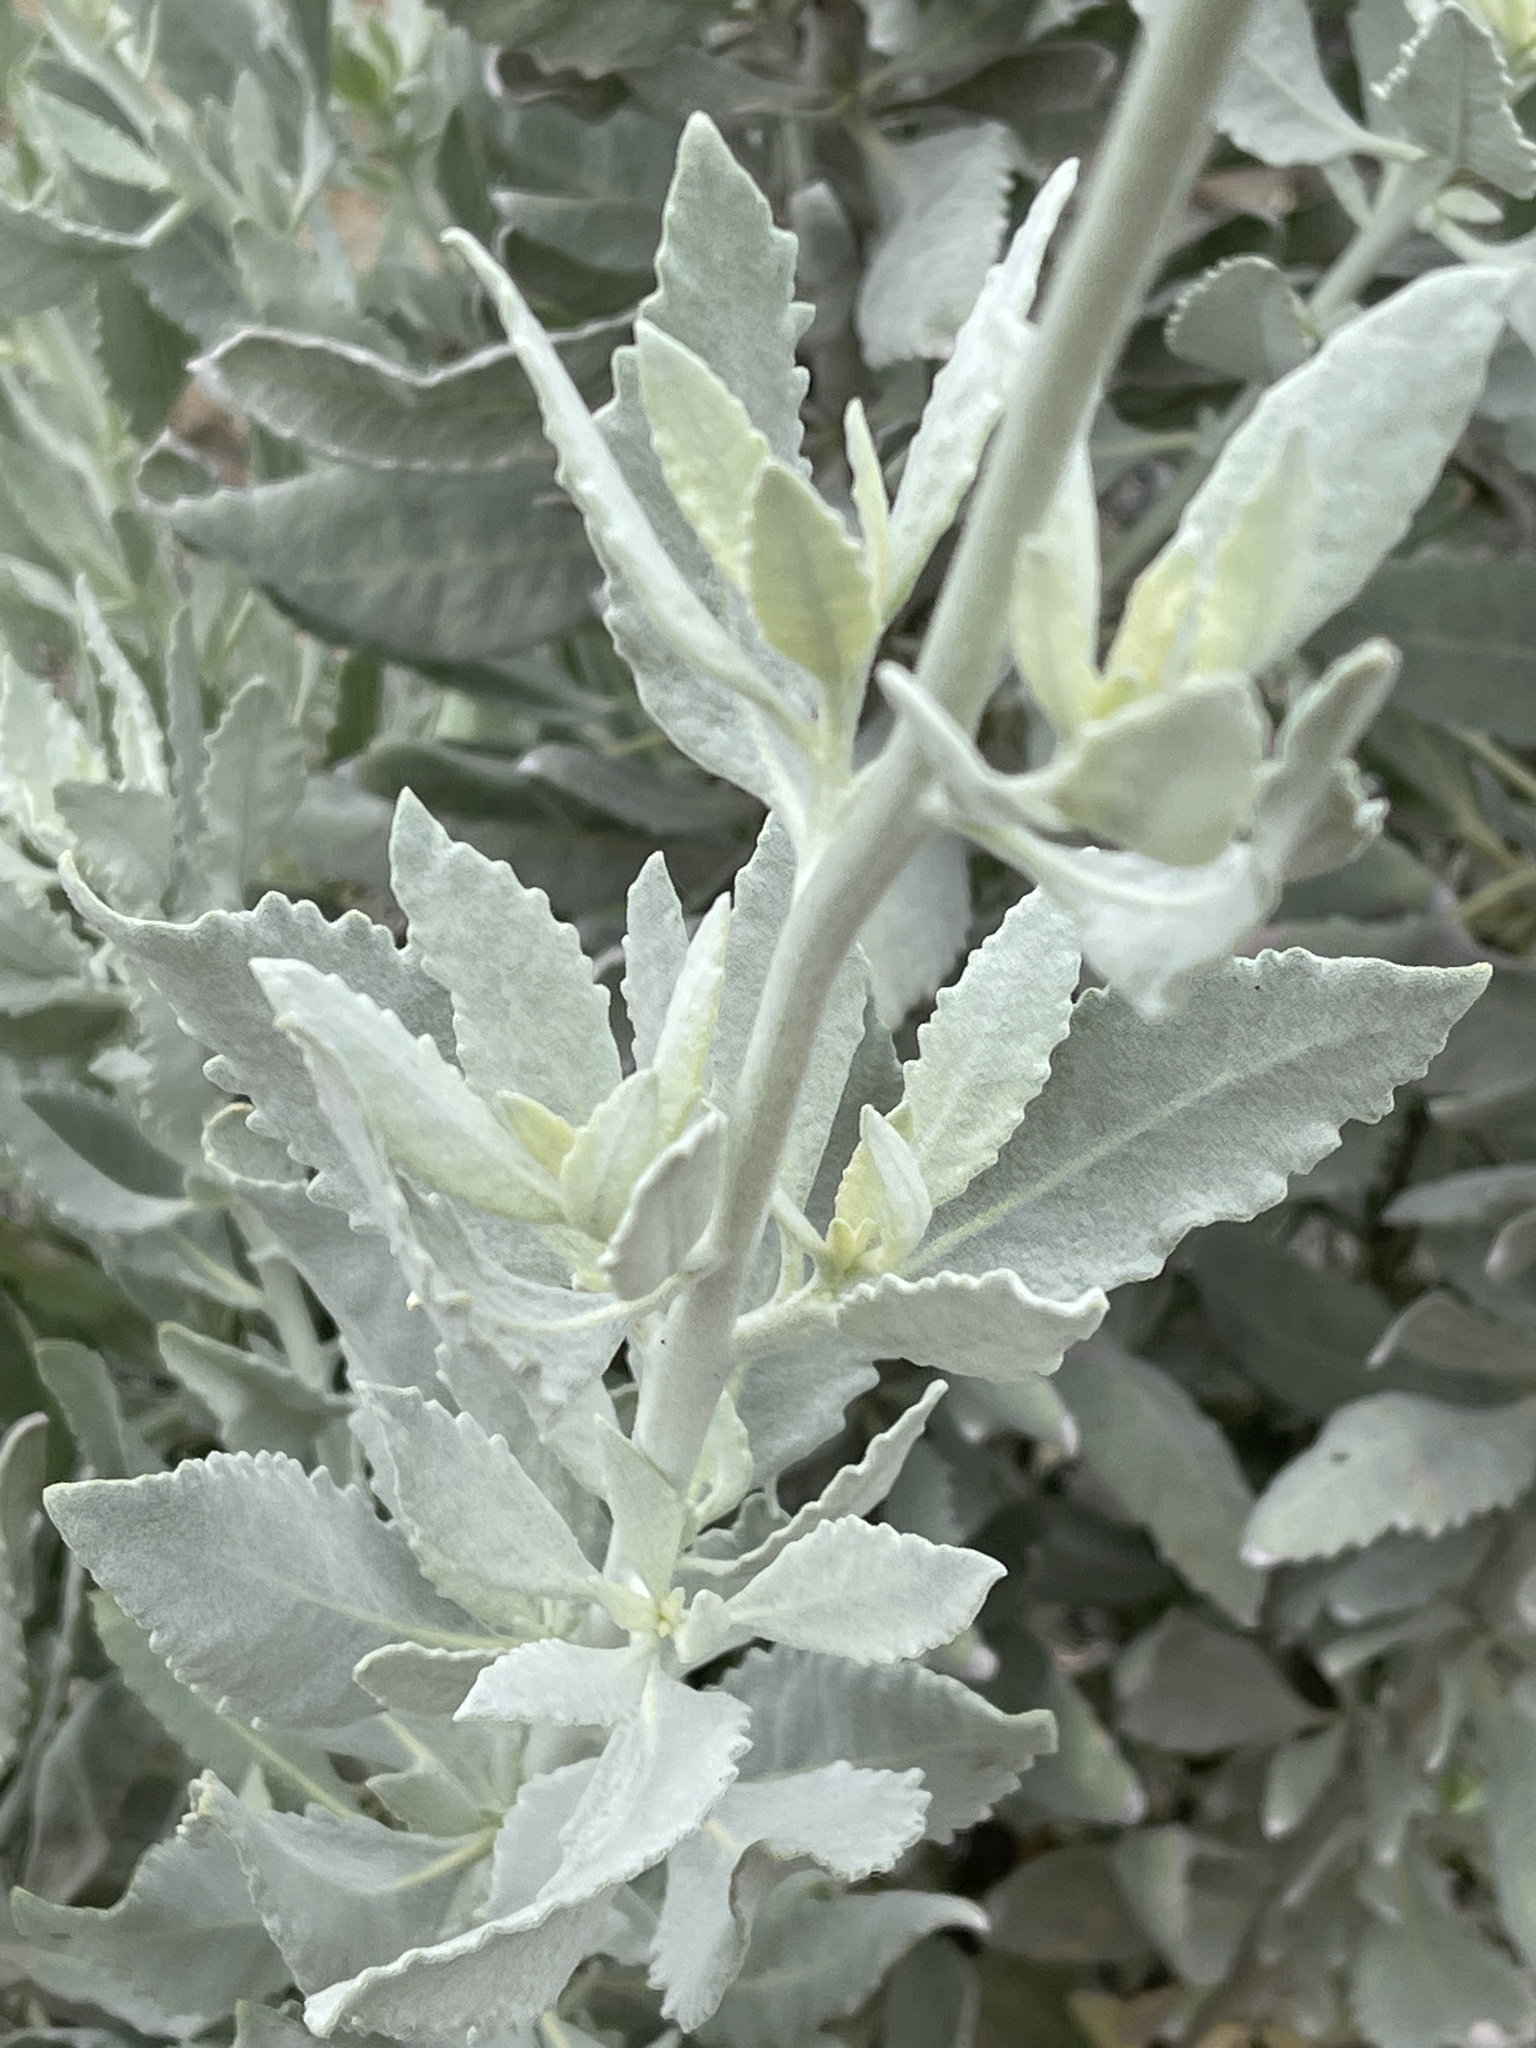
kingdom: Plantae
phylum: Tracheophyta
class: Magnoliopsida
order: Boraginales
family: Namaceae
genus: Eriodictyon
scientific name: Eriodictyon tomentosum
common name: Woolly yerba-santa
